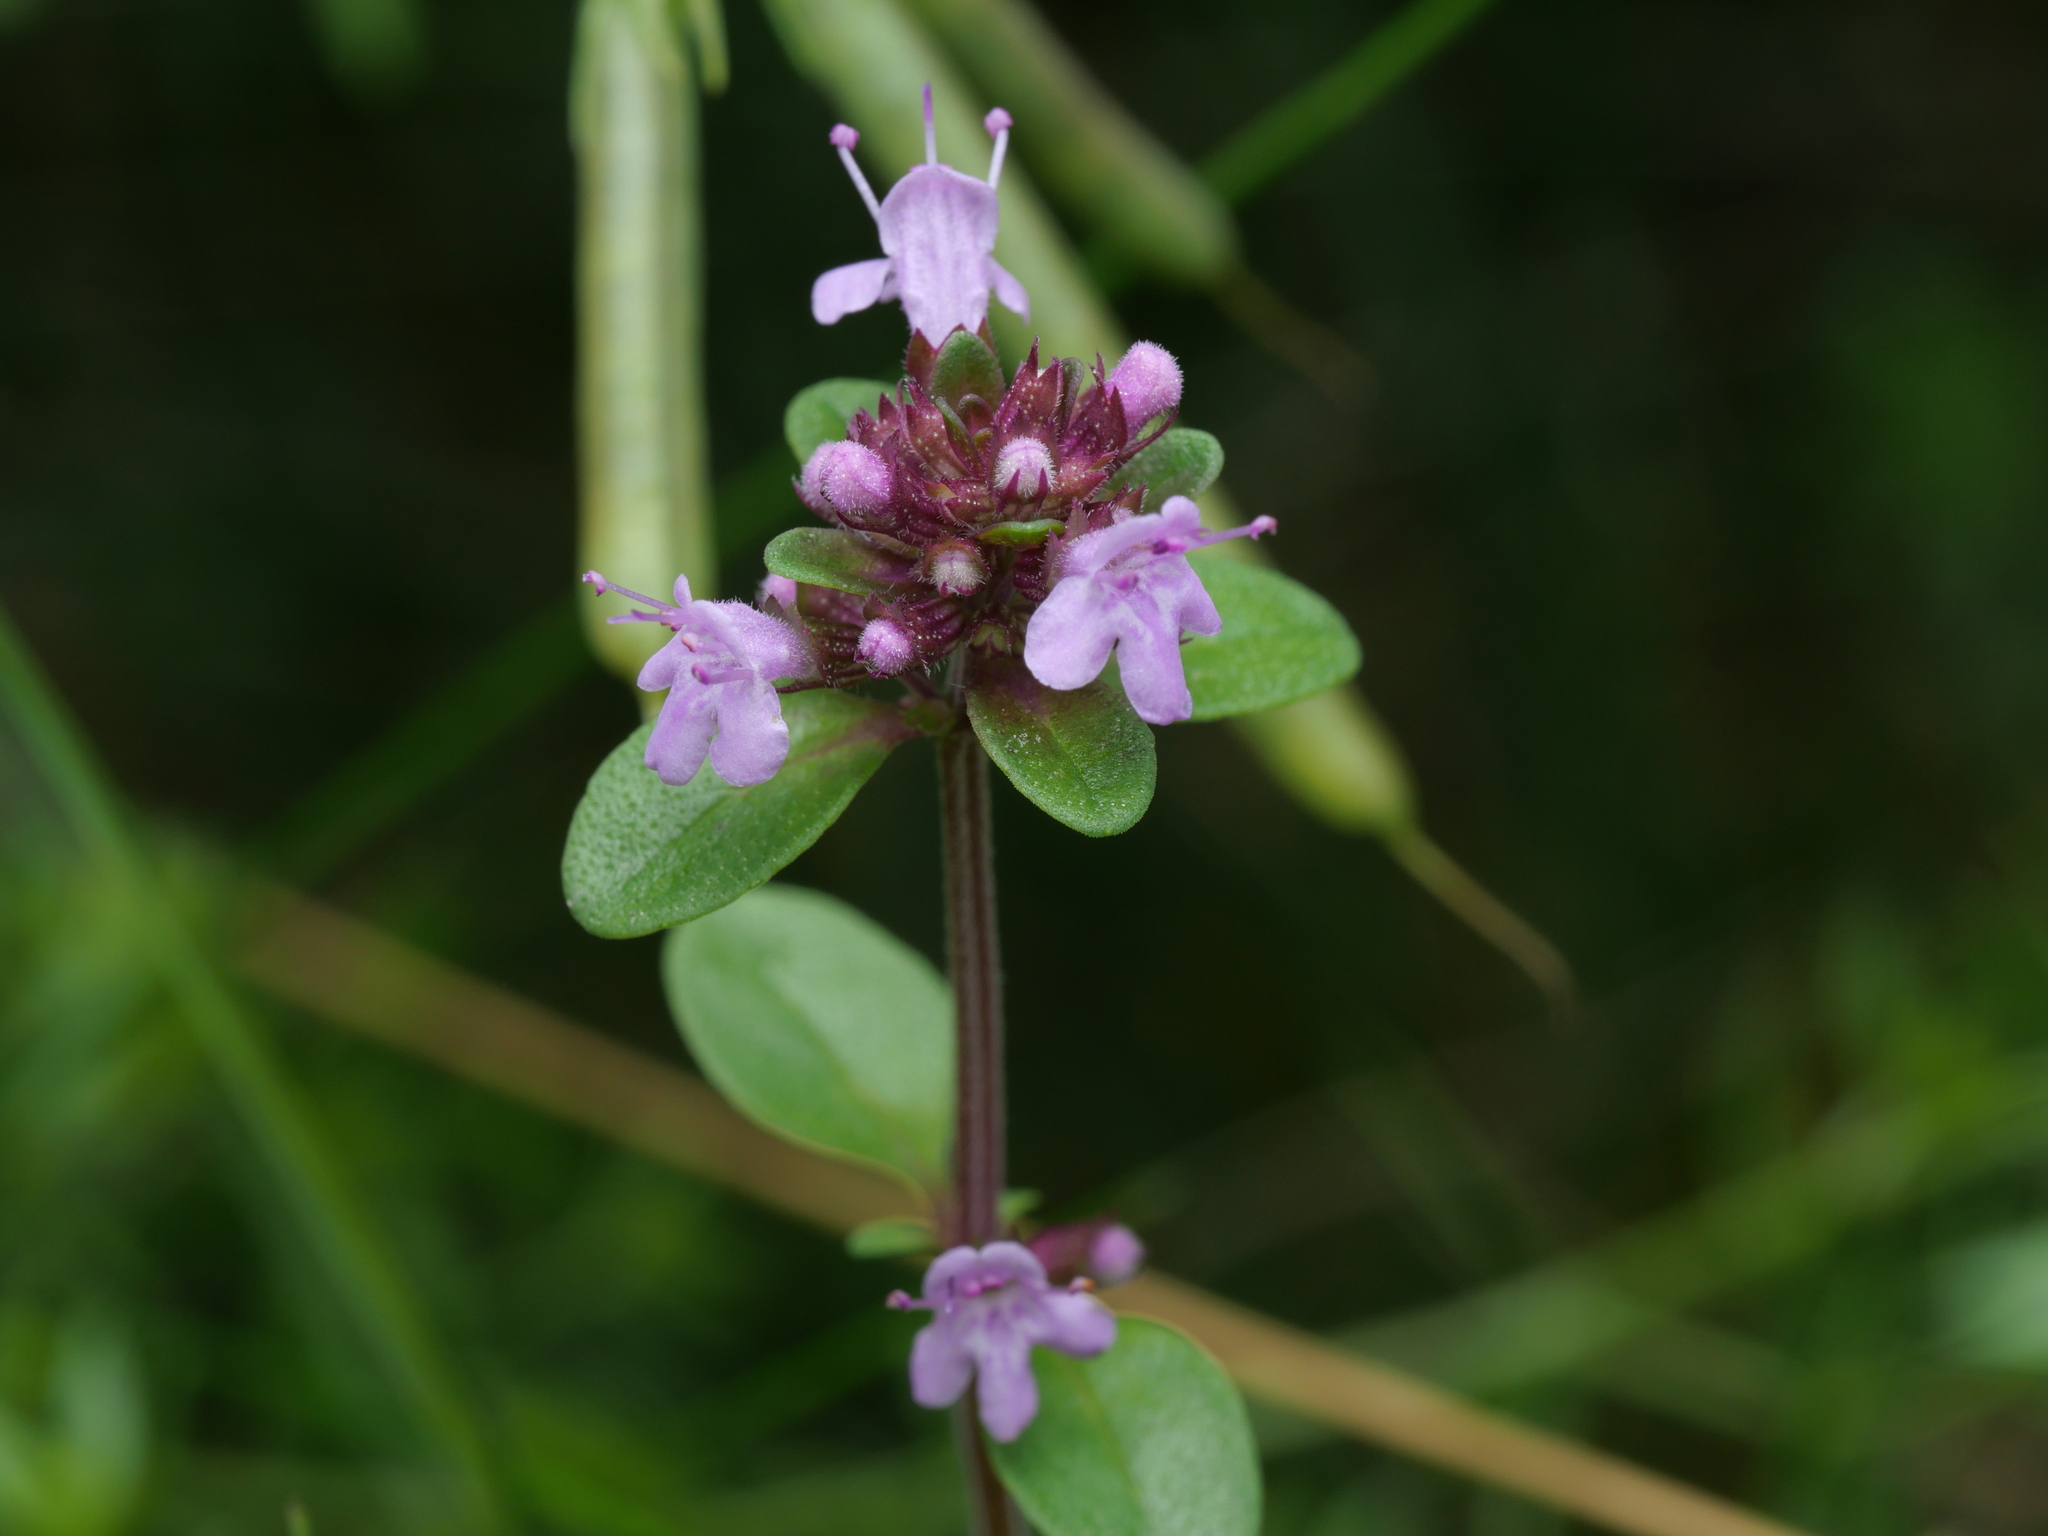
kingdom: Plantae
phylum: Tracheophyta
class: Magnoliopsida
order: Lamiales
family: Lamiaceae
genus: Thymus
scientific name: Thymus pulegioides
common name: Large thyme
